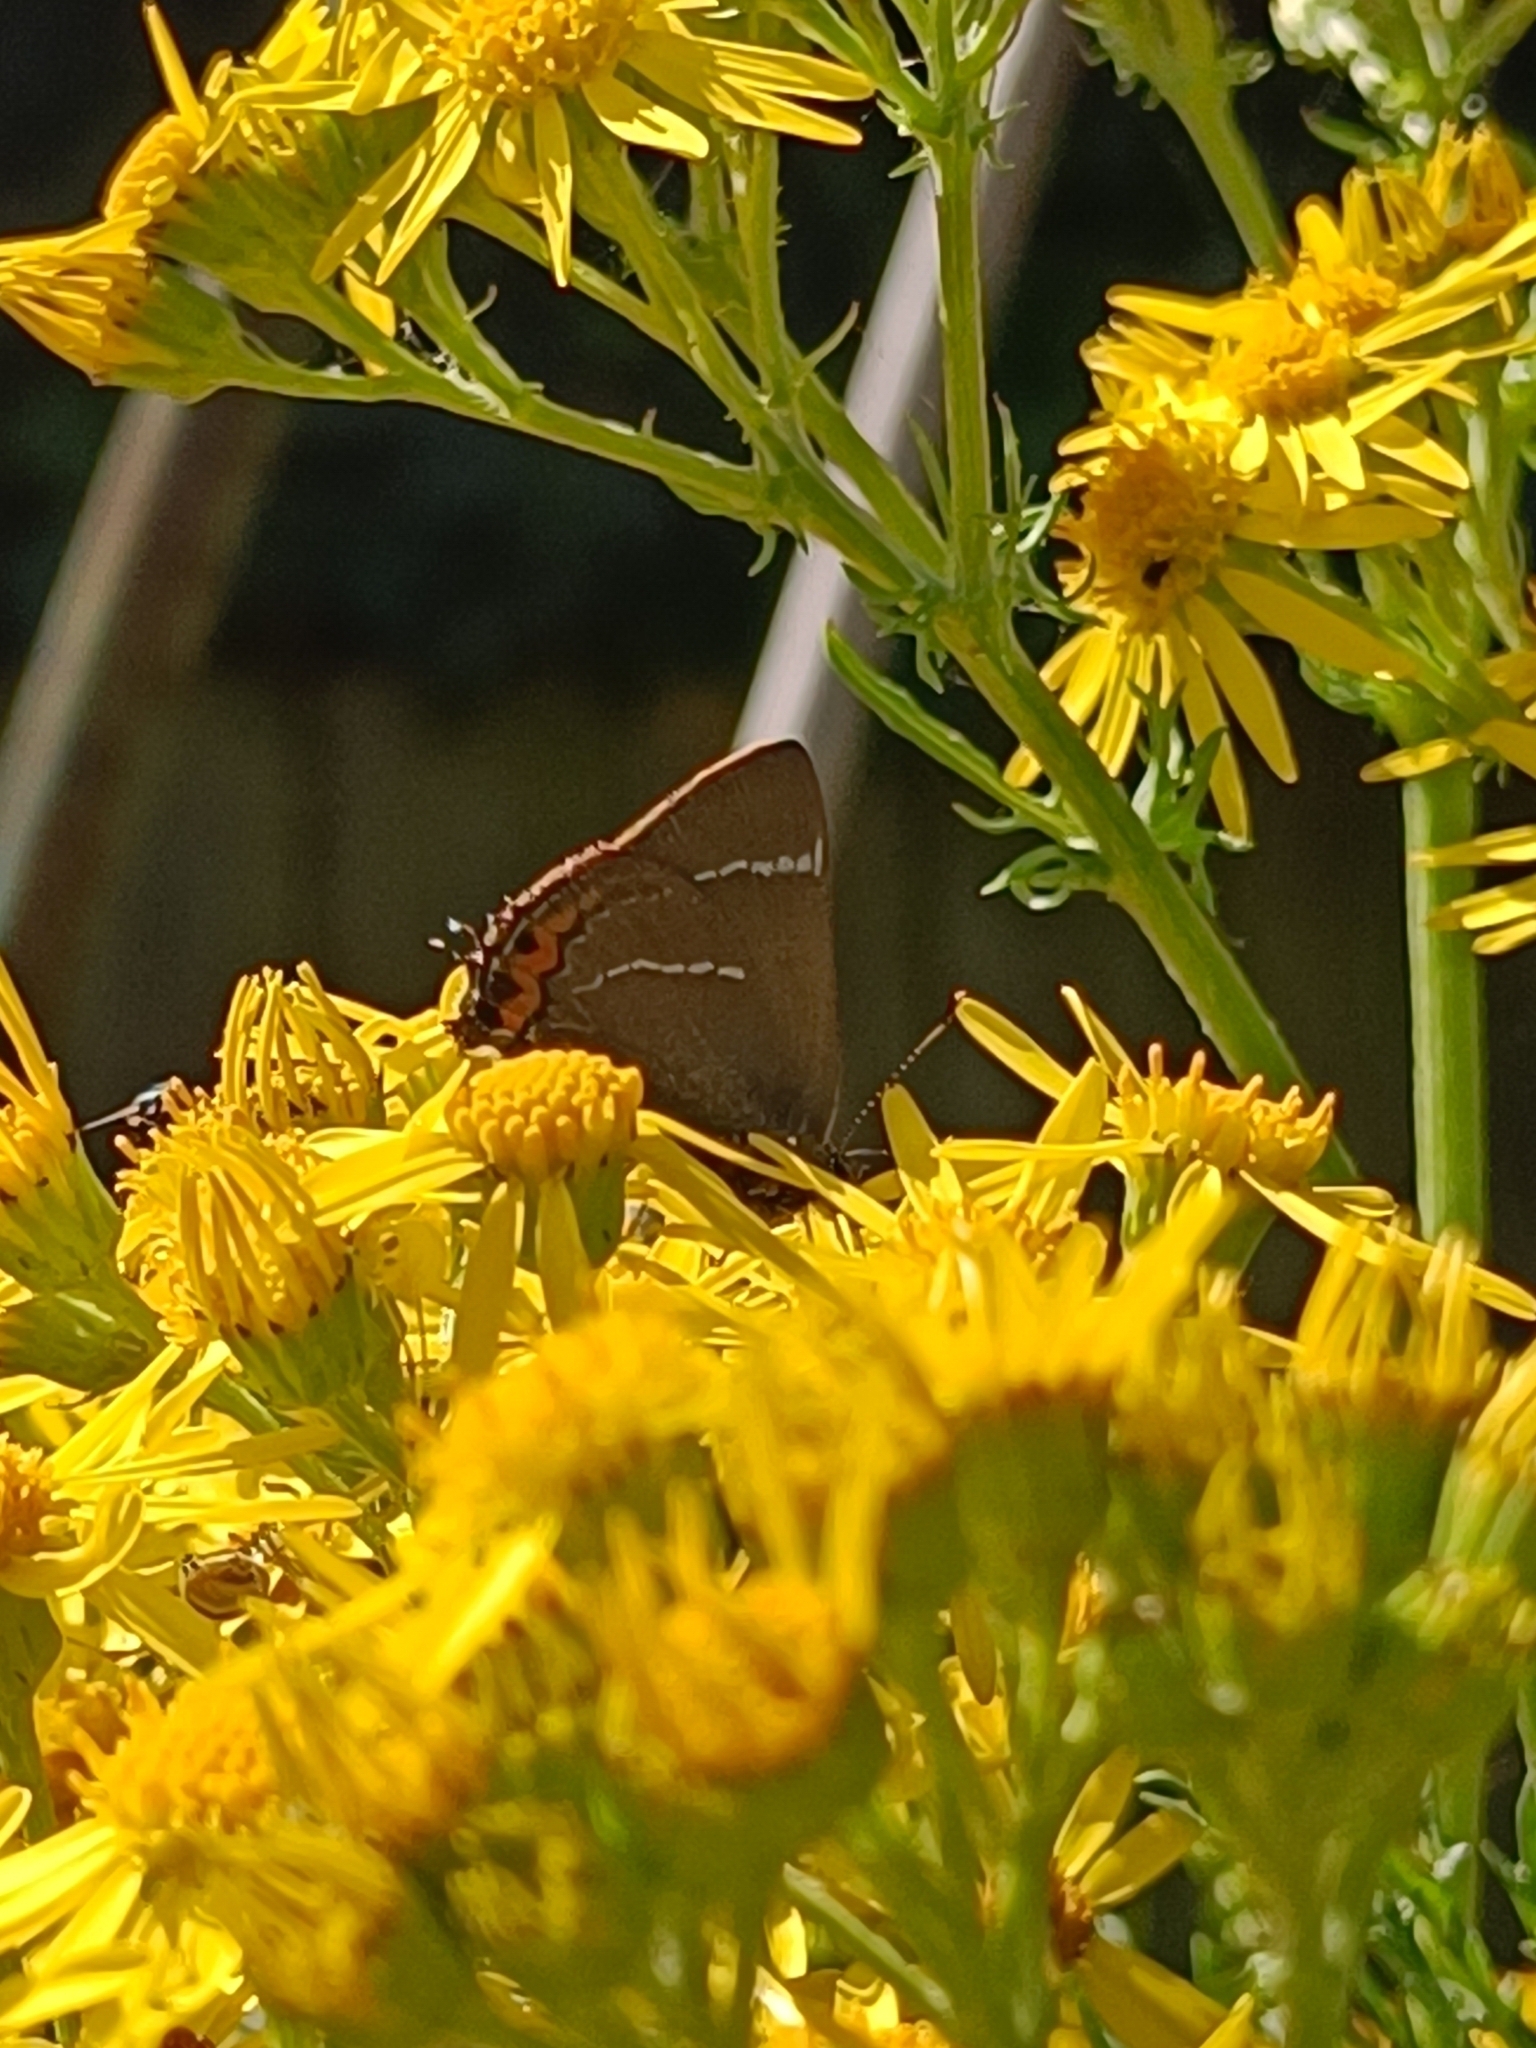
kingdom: Animalia
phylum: Arthropoda
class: Insecta
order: Lepidoptera
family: Lycaenidae
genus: Satyrium
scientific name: Satyrium w-album
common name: White-letter hairstreak
